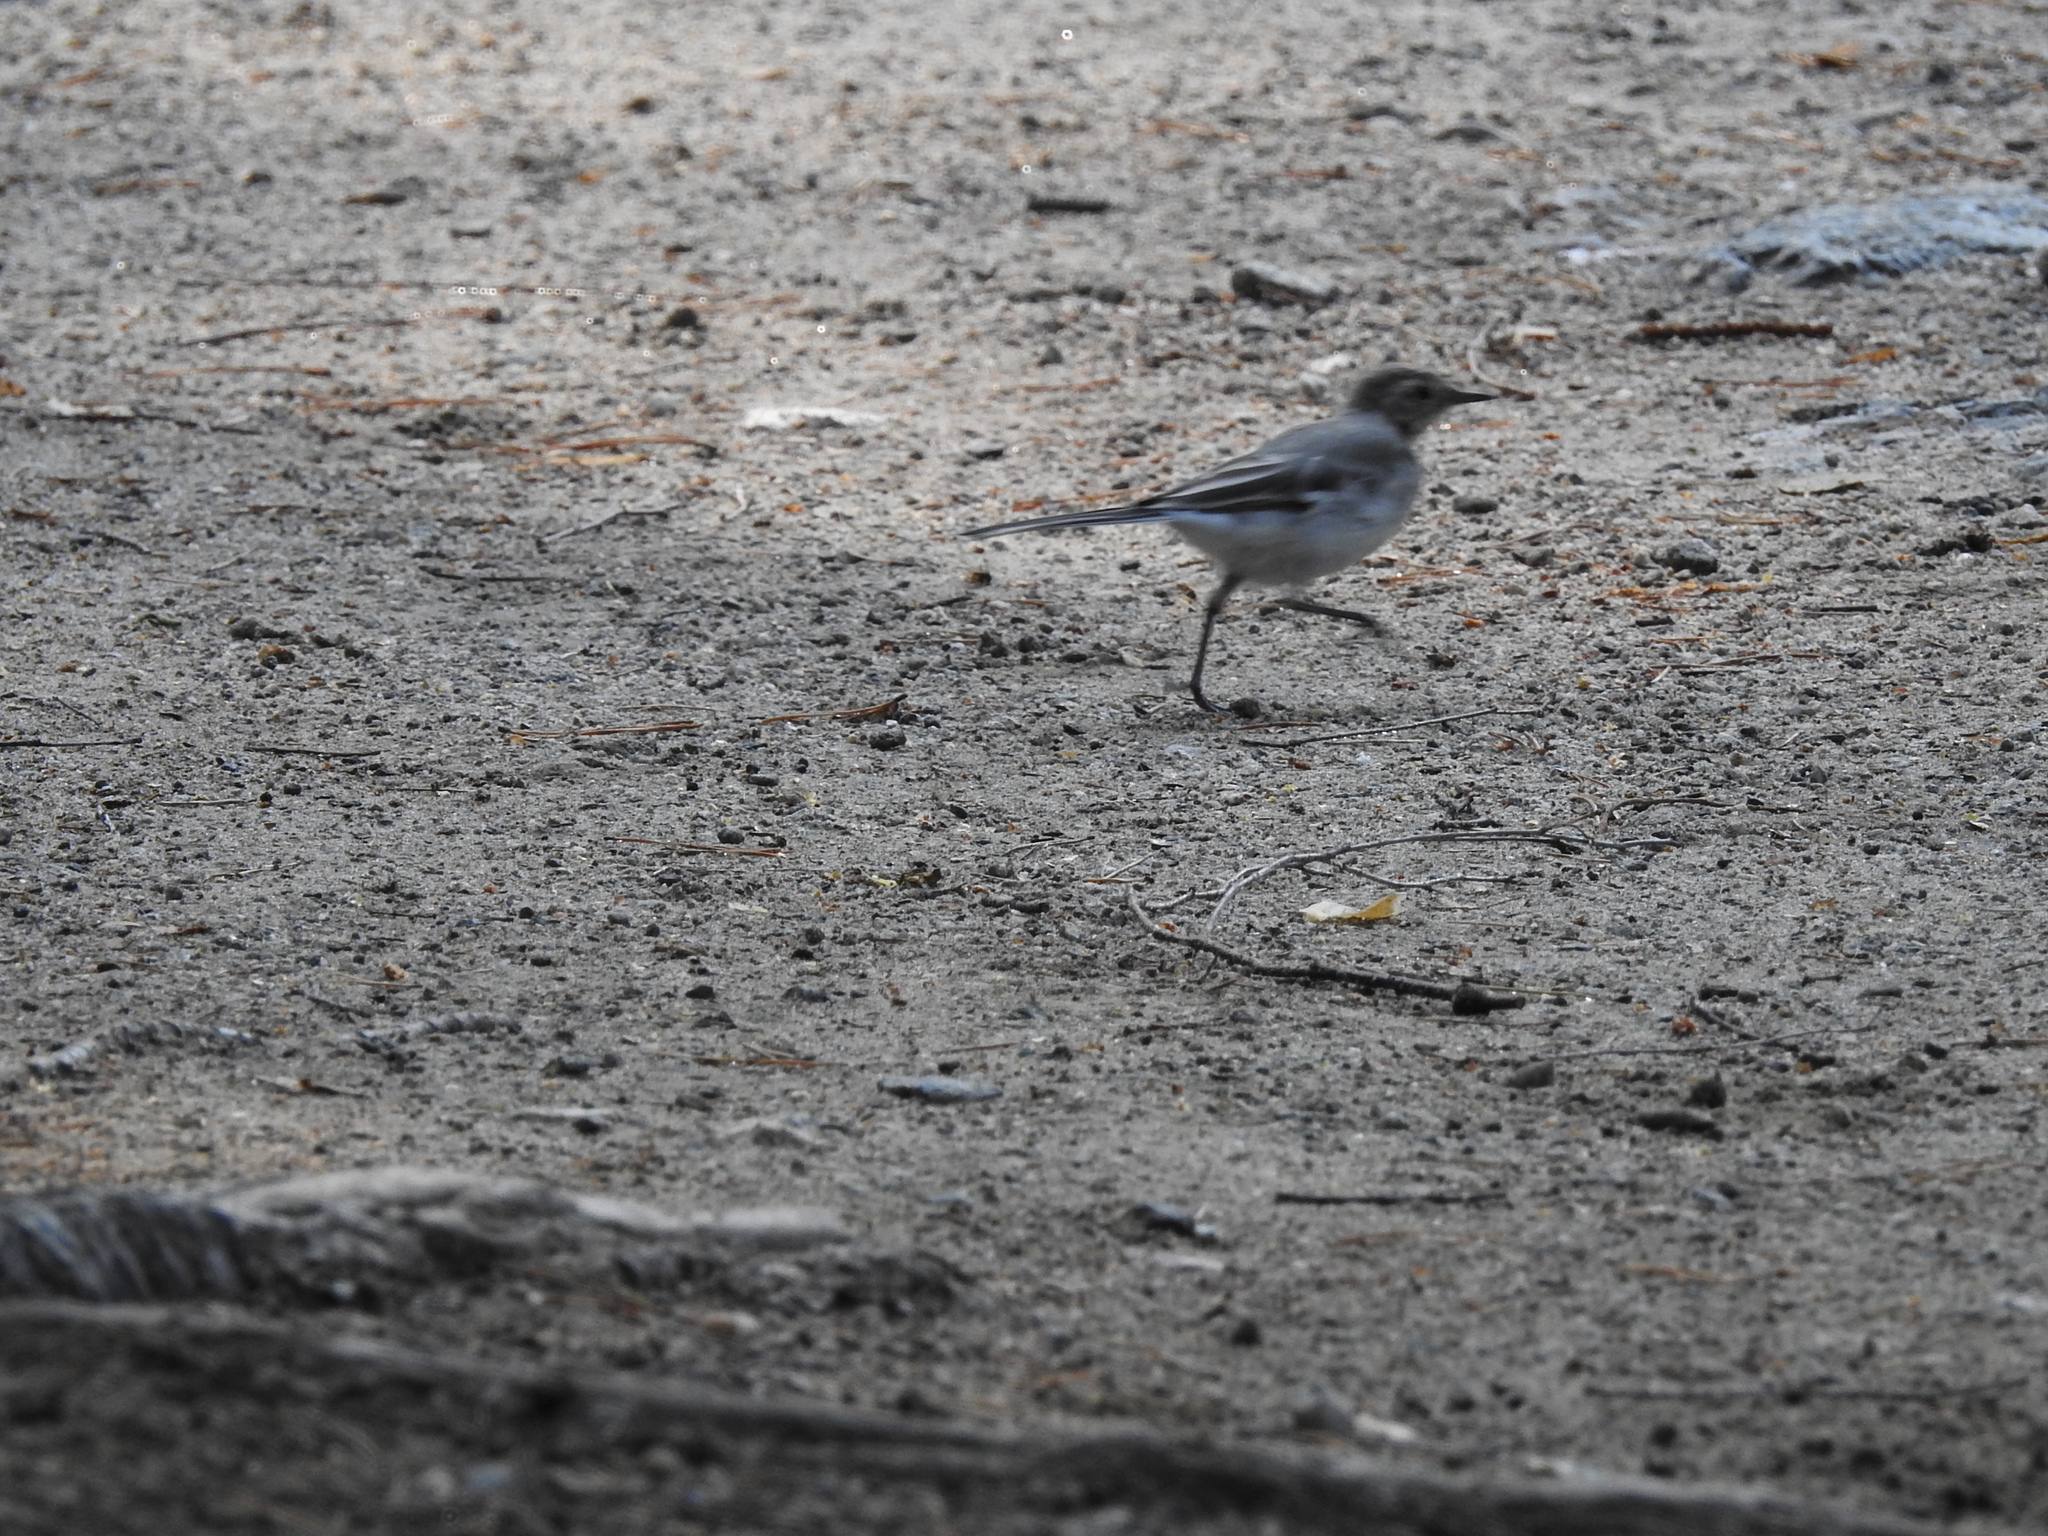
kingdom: Animalia
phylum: Chordata
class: Aves
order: Passeriformes
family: Motacillidae
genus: Motacilla
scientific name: Motacilla alba
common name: White wagtail
